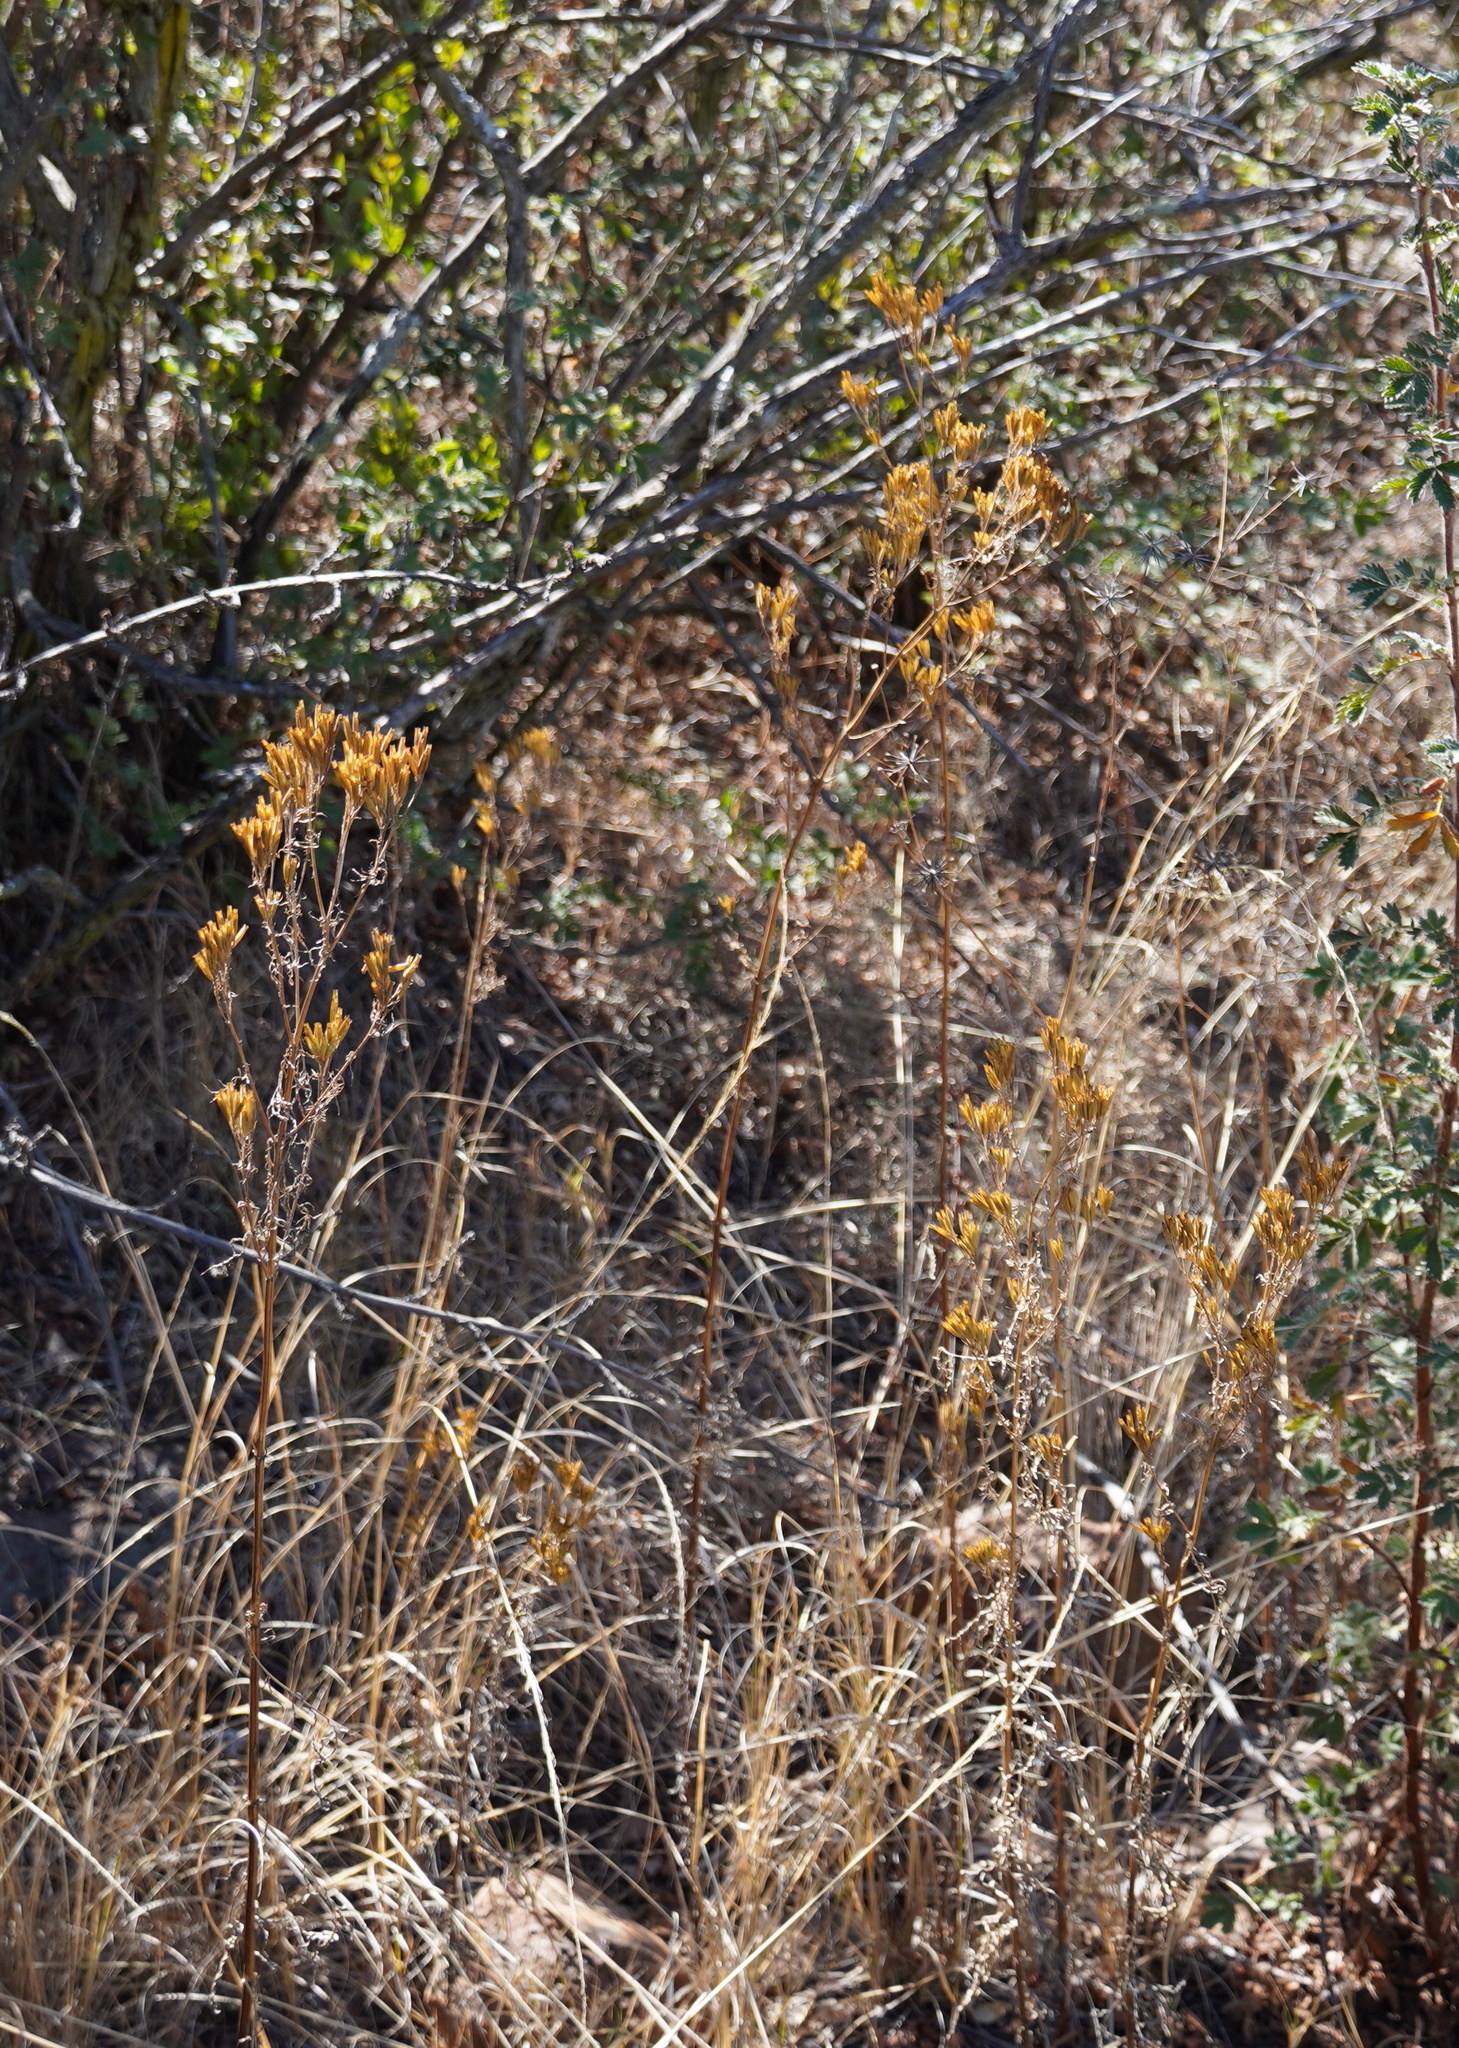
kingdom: Plantae
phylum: Tracheophyta
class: Magnoliopsida
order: Asterales
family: Asteraceae
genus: Tagetes
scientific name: Tagetes minuta
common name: Muster john henry
